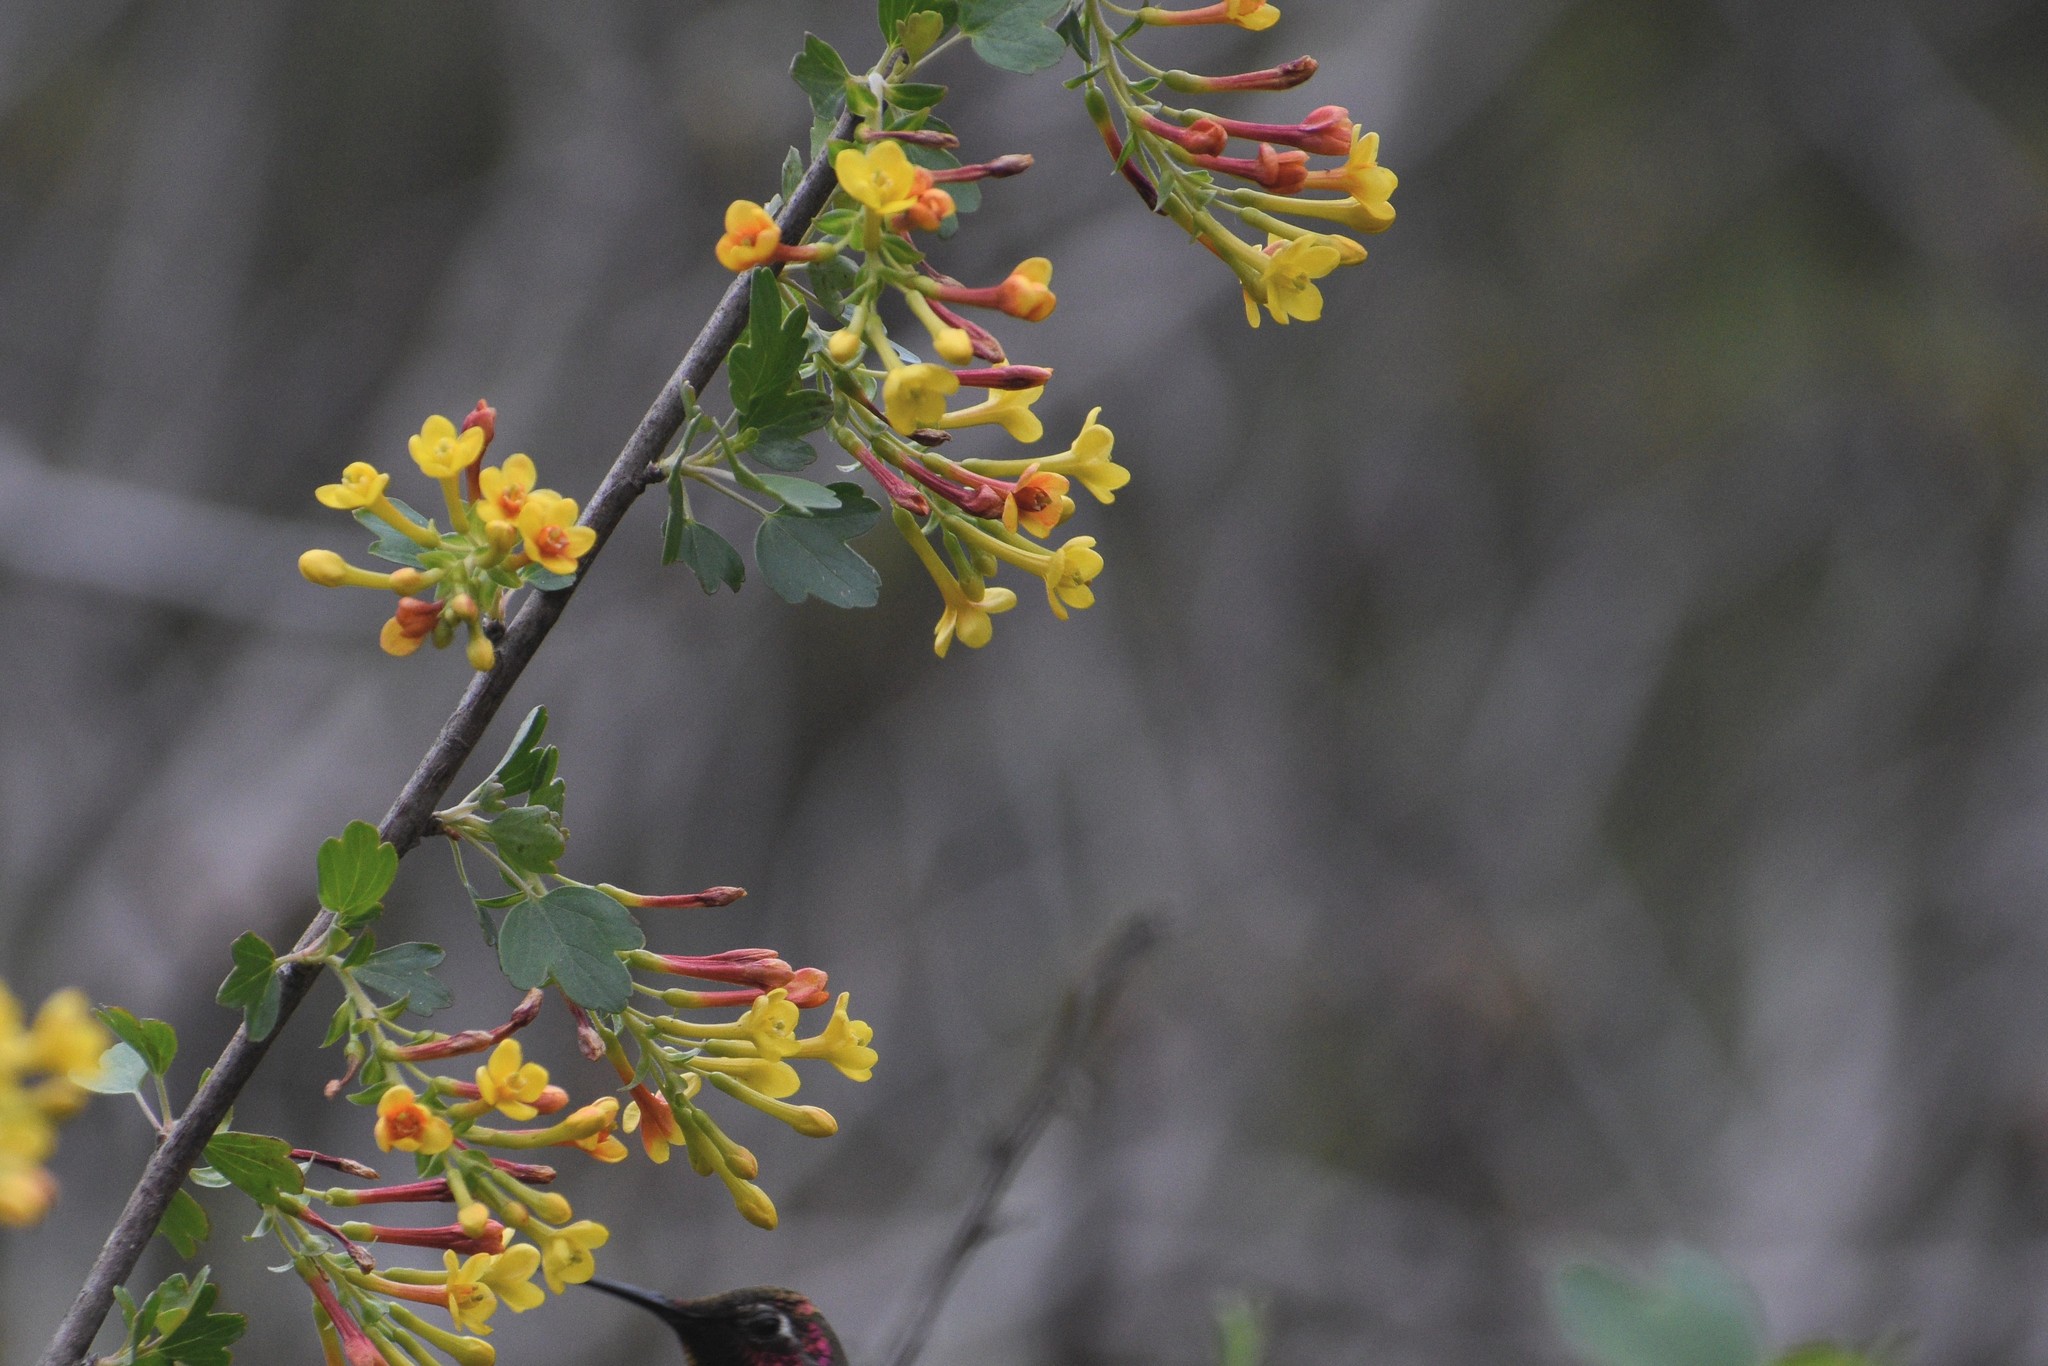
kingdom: Plantae
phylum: Tracheophyta
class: Magnoliopsida
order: Saxifragales
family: Grossulariaceae
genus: Ribes
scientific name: Ribes aureum
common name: Golden currant
